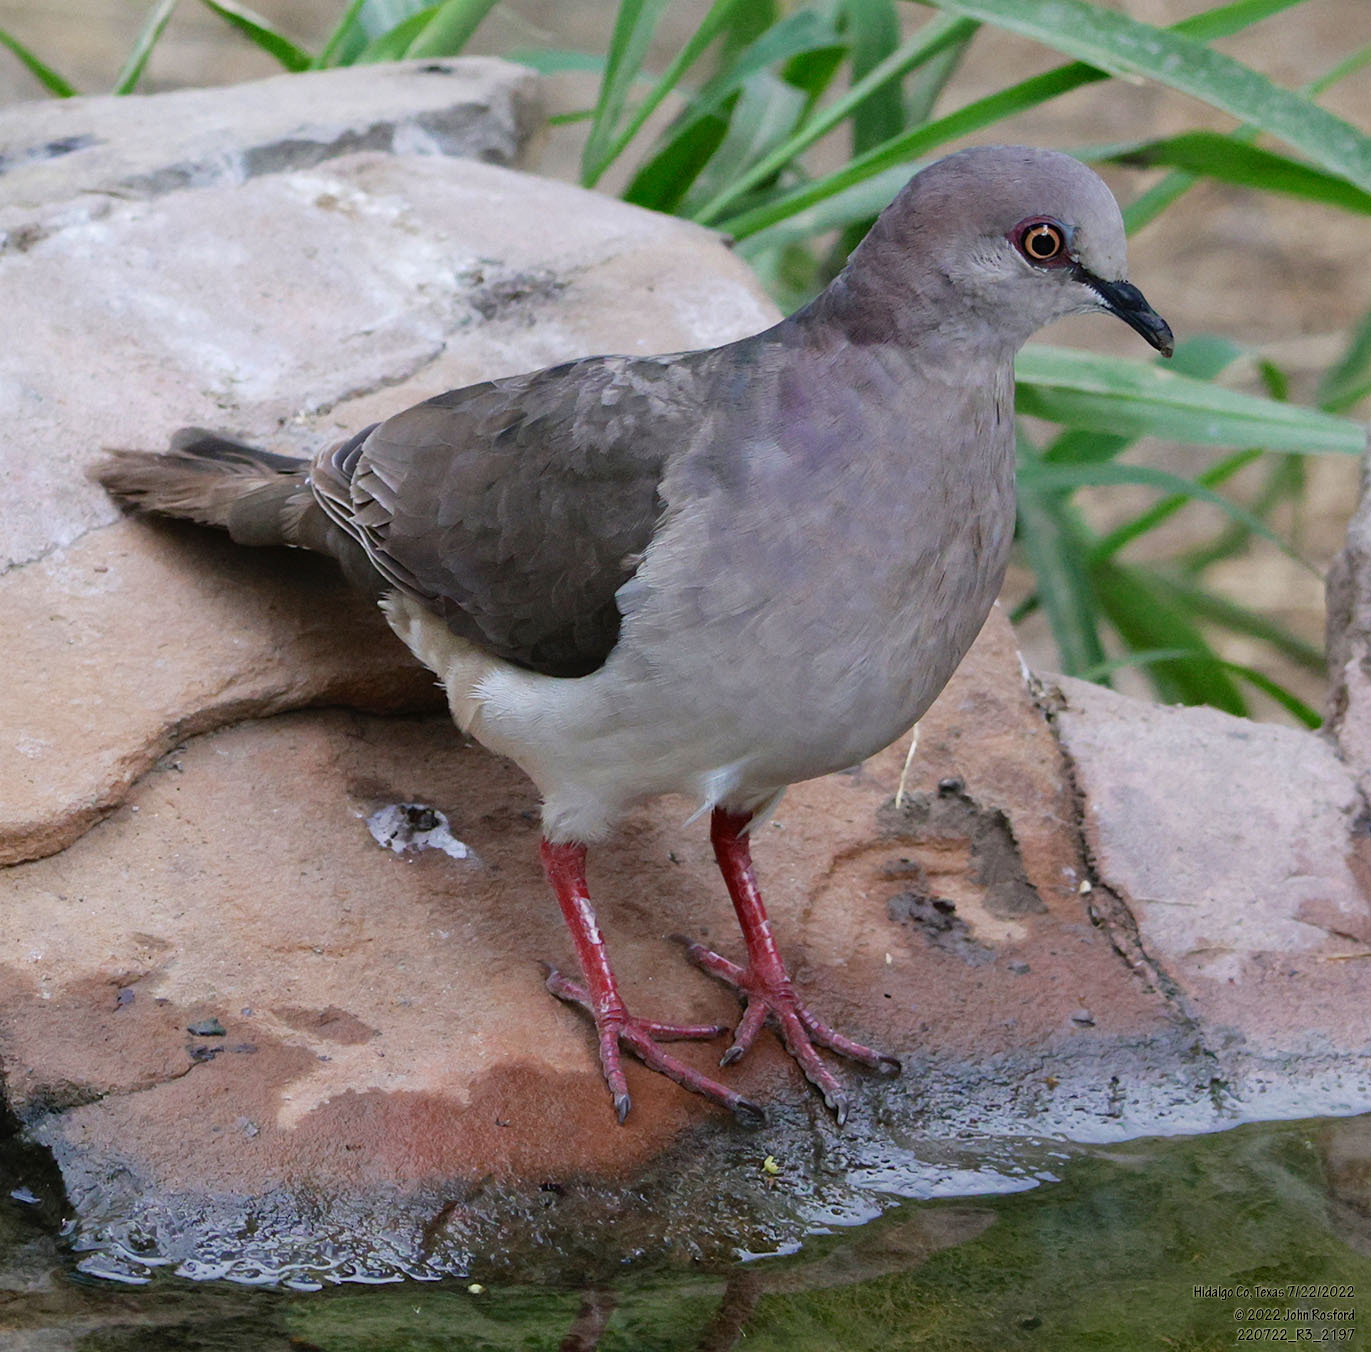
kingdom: Animalia
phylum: Chordata
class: Aves
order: Columbiformes
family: Columbidae
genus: Leptotila
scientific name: Leptotila verreauxi
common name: White-tipped dove
